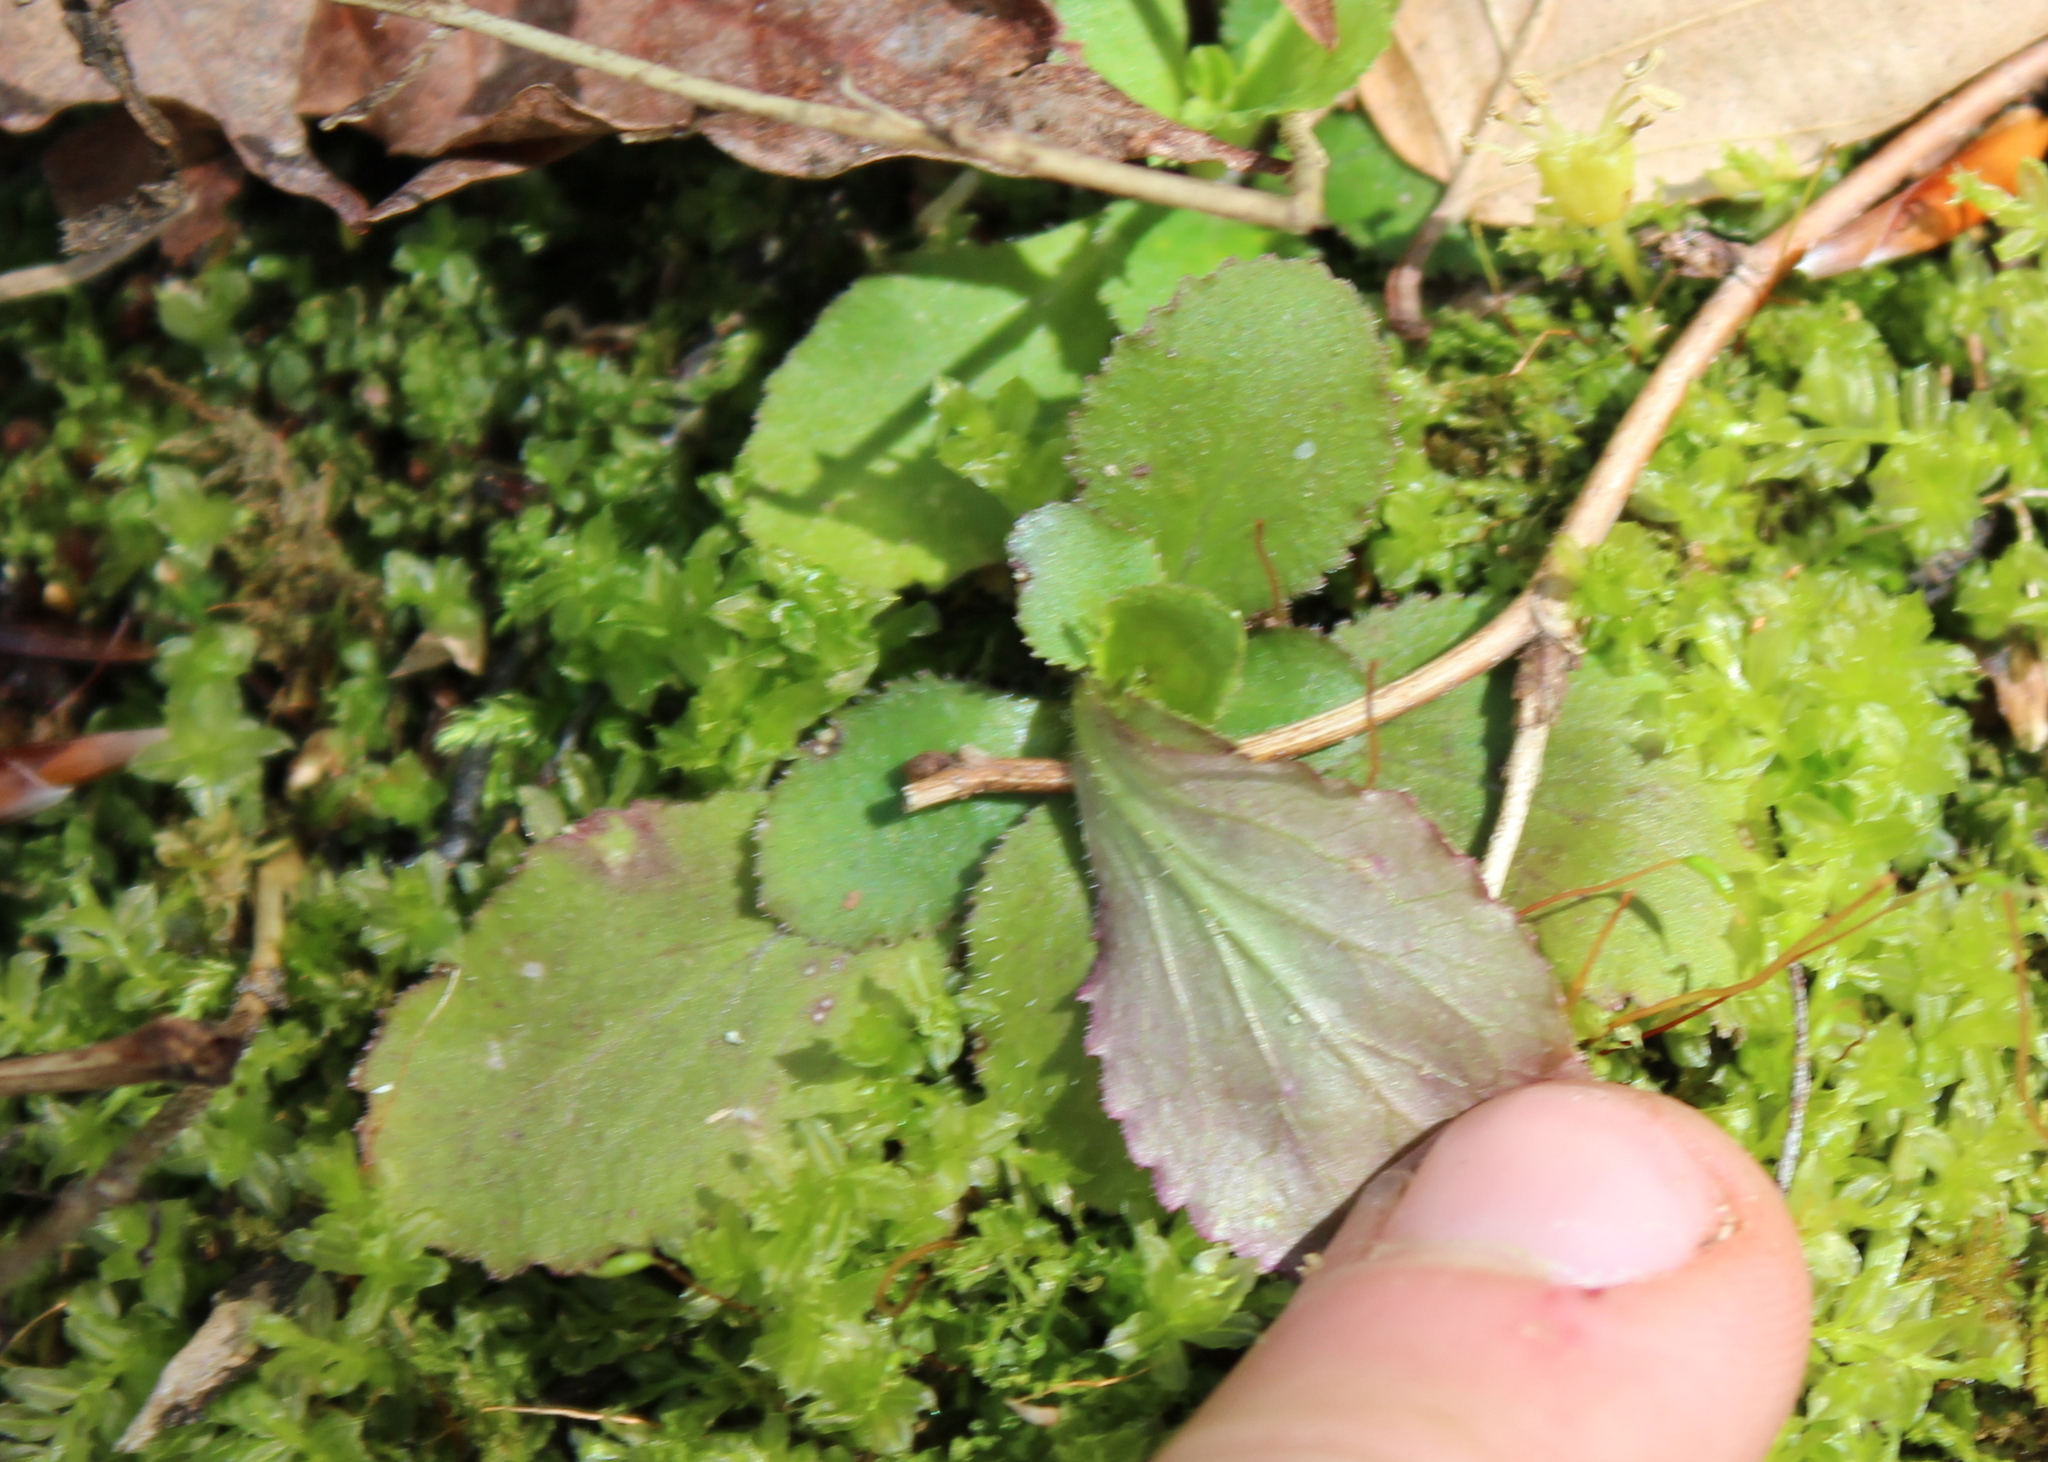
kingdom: Plantae
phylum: Tracheophyta
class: Magnoliopsida
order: Saxifragales
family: Saxifragaceae
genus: Micranthes
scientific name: Micranthes virginiensis
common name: Early saxifrage
